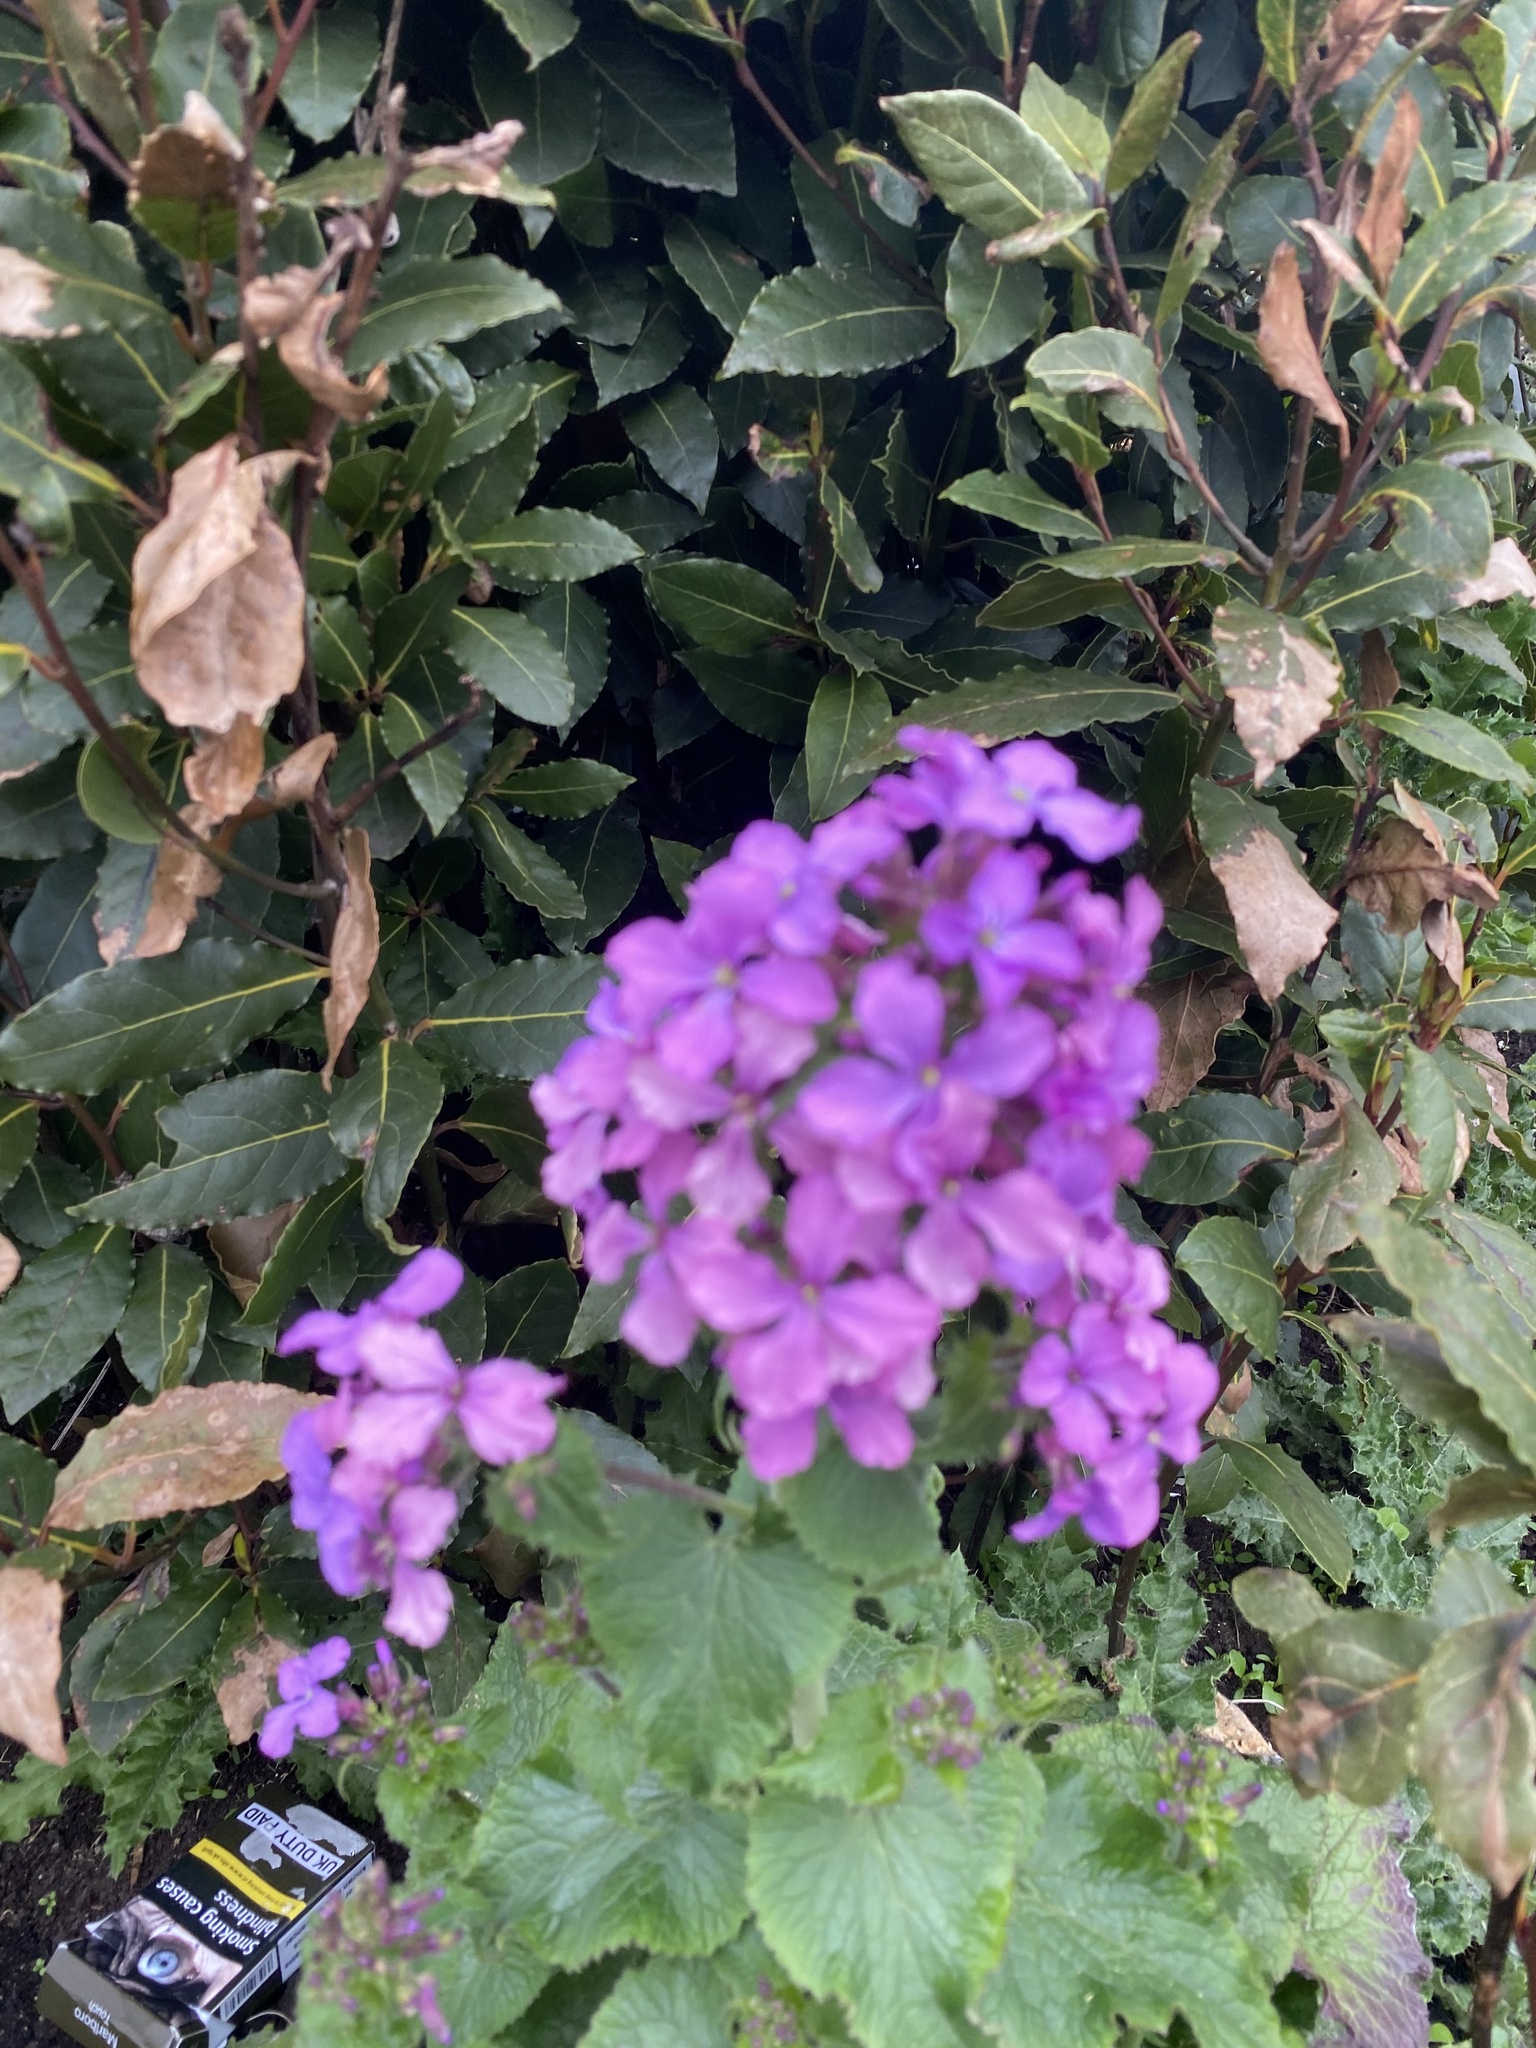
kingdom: Plantae
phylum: Tracheophyta
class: Magnoliopsida
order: Brassicales
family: Brassicaceae
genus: Lunaria
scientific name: Lunaria annua
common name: Honesty
